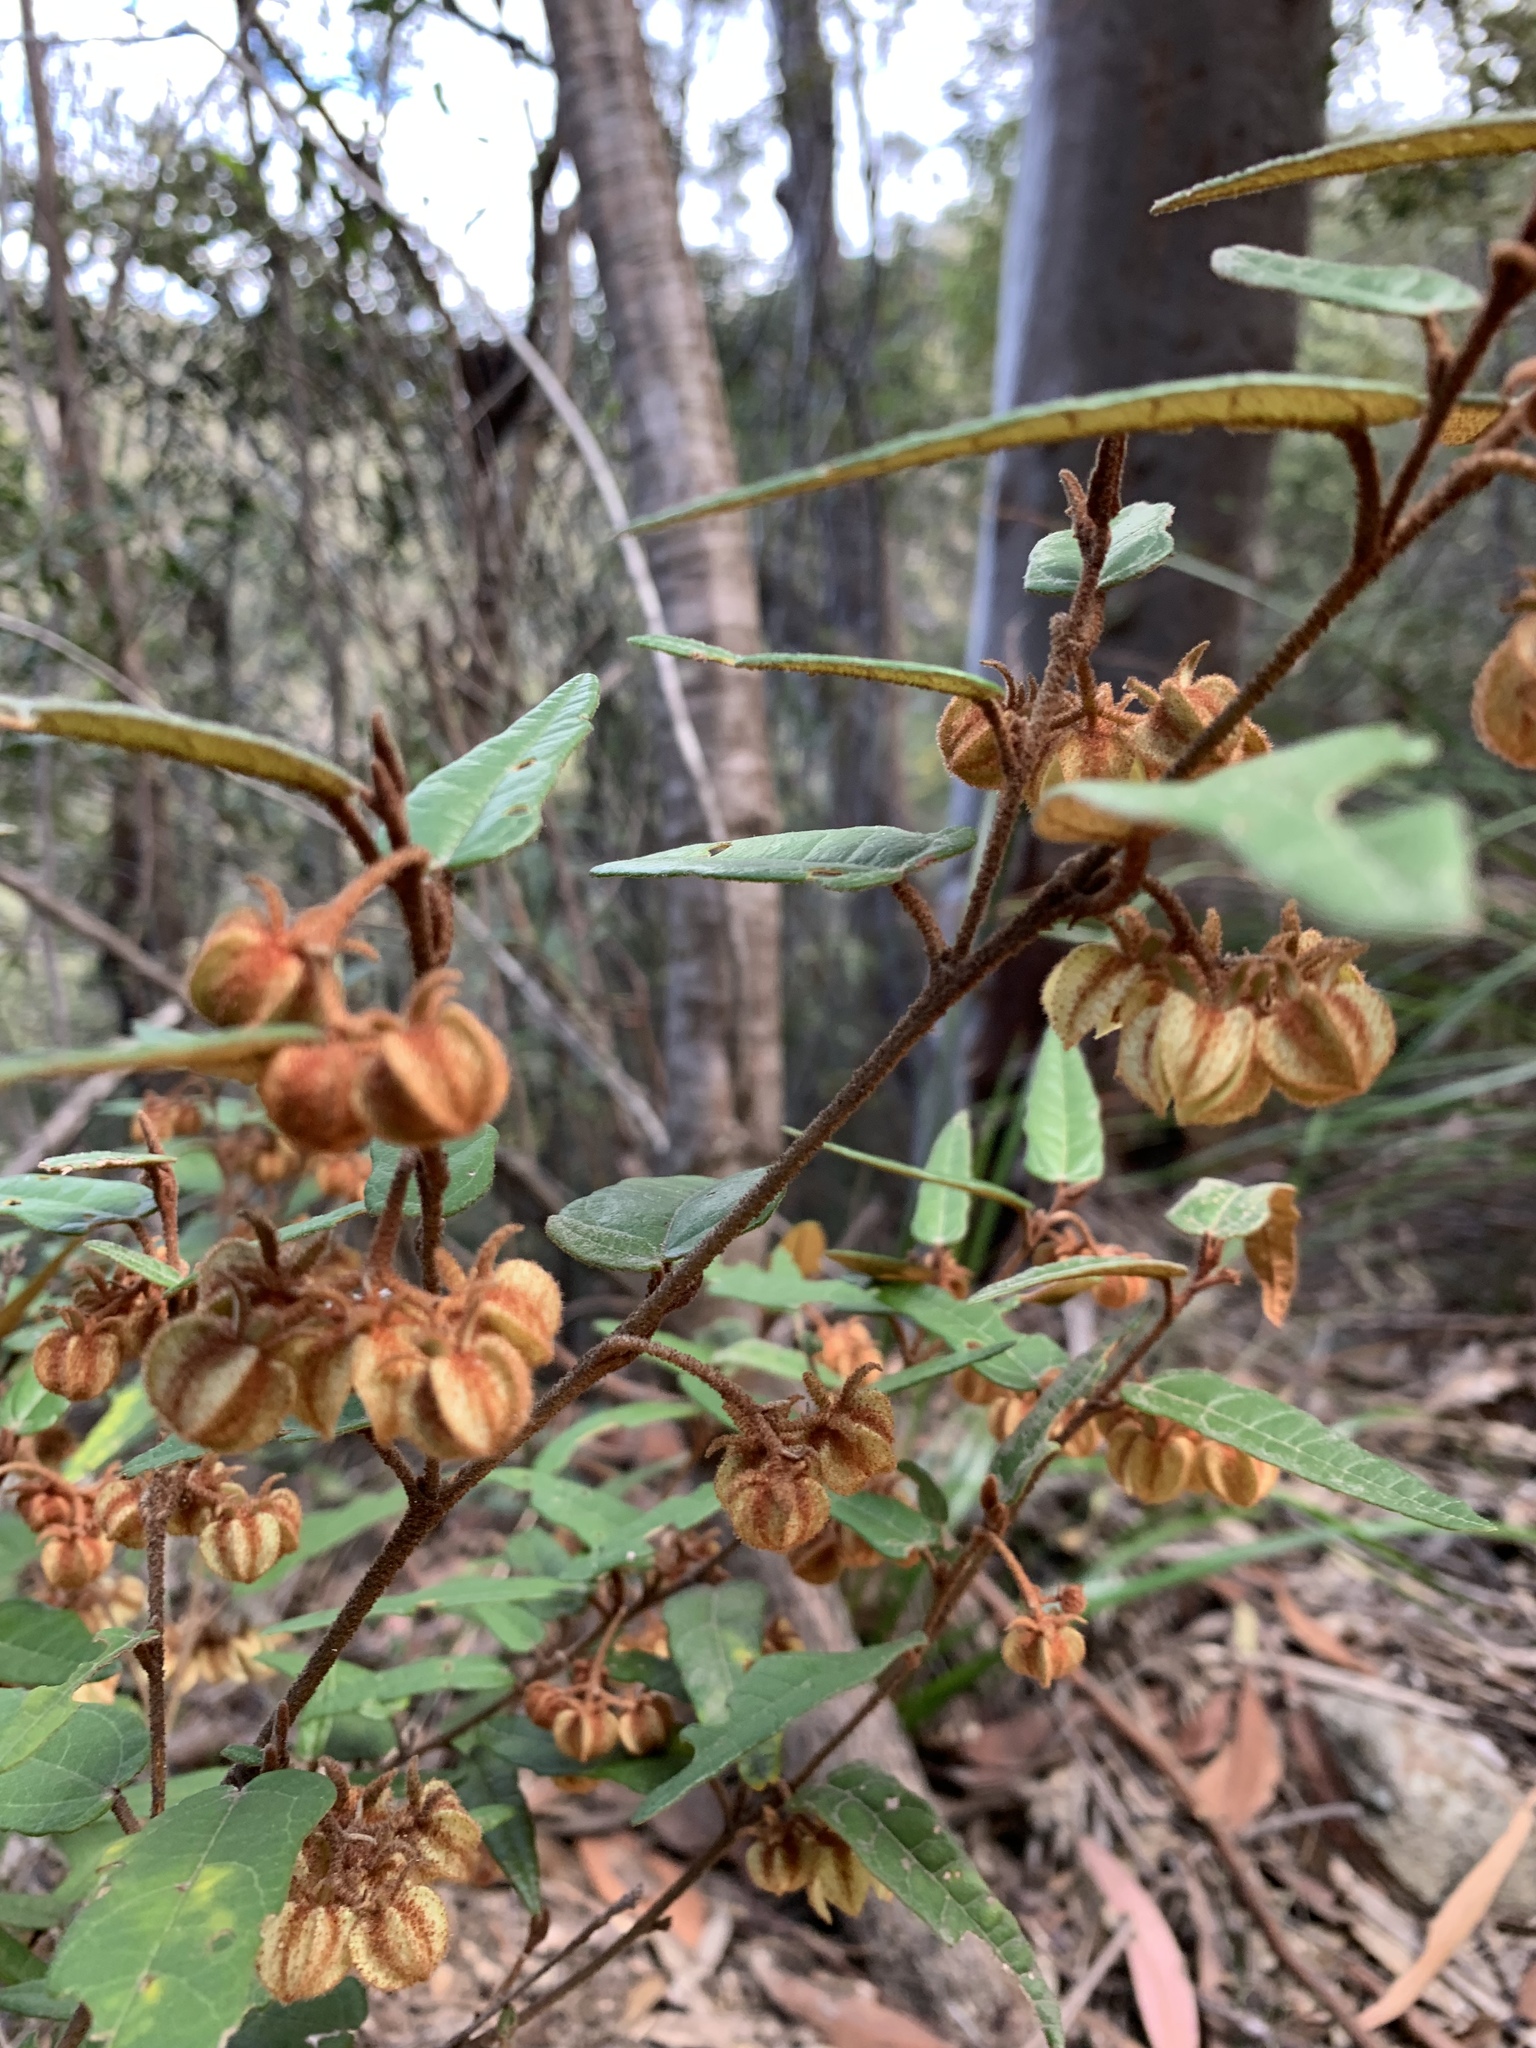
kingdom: Plantae
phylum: Tracheophyta
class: Magnoliopsida
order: Malvales
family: Malvaceae
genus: Lasiopetalum
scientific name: Lasiopetalum ferrugineum
